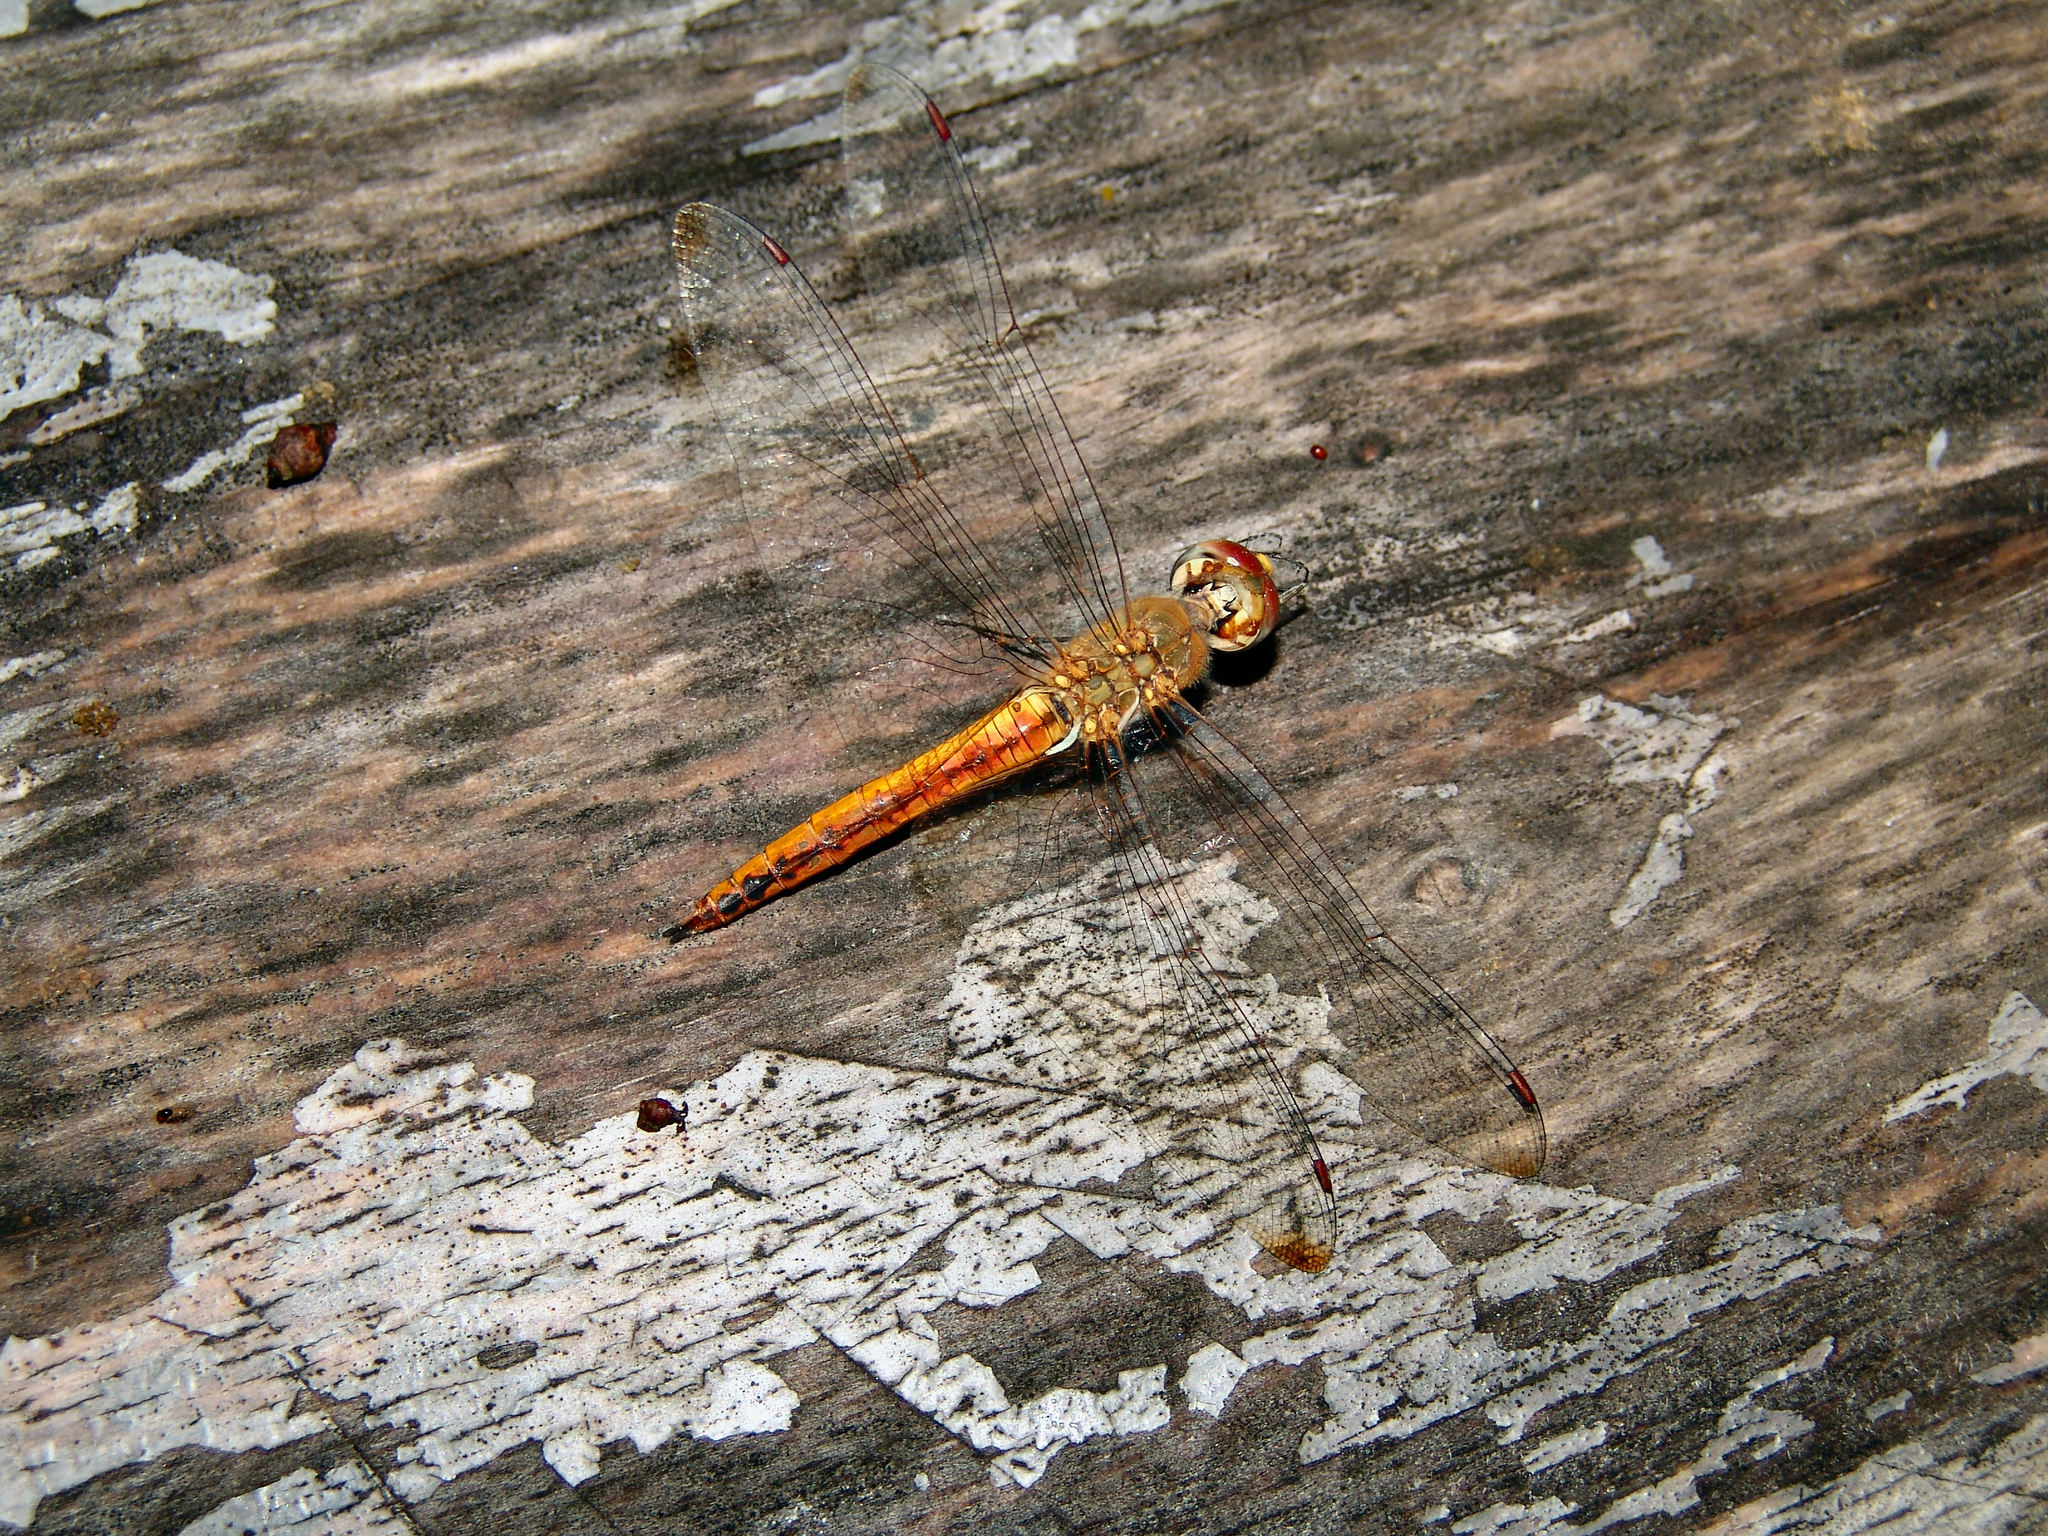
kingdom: Animalia
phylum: Arthropoda
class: Insecta
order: Odonata
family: Libellulidae
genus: Pantala
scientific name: Pantala flavescens
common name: Wandering glider
